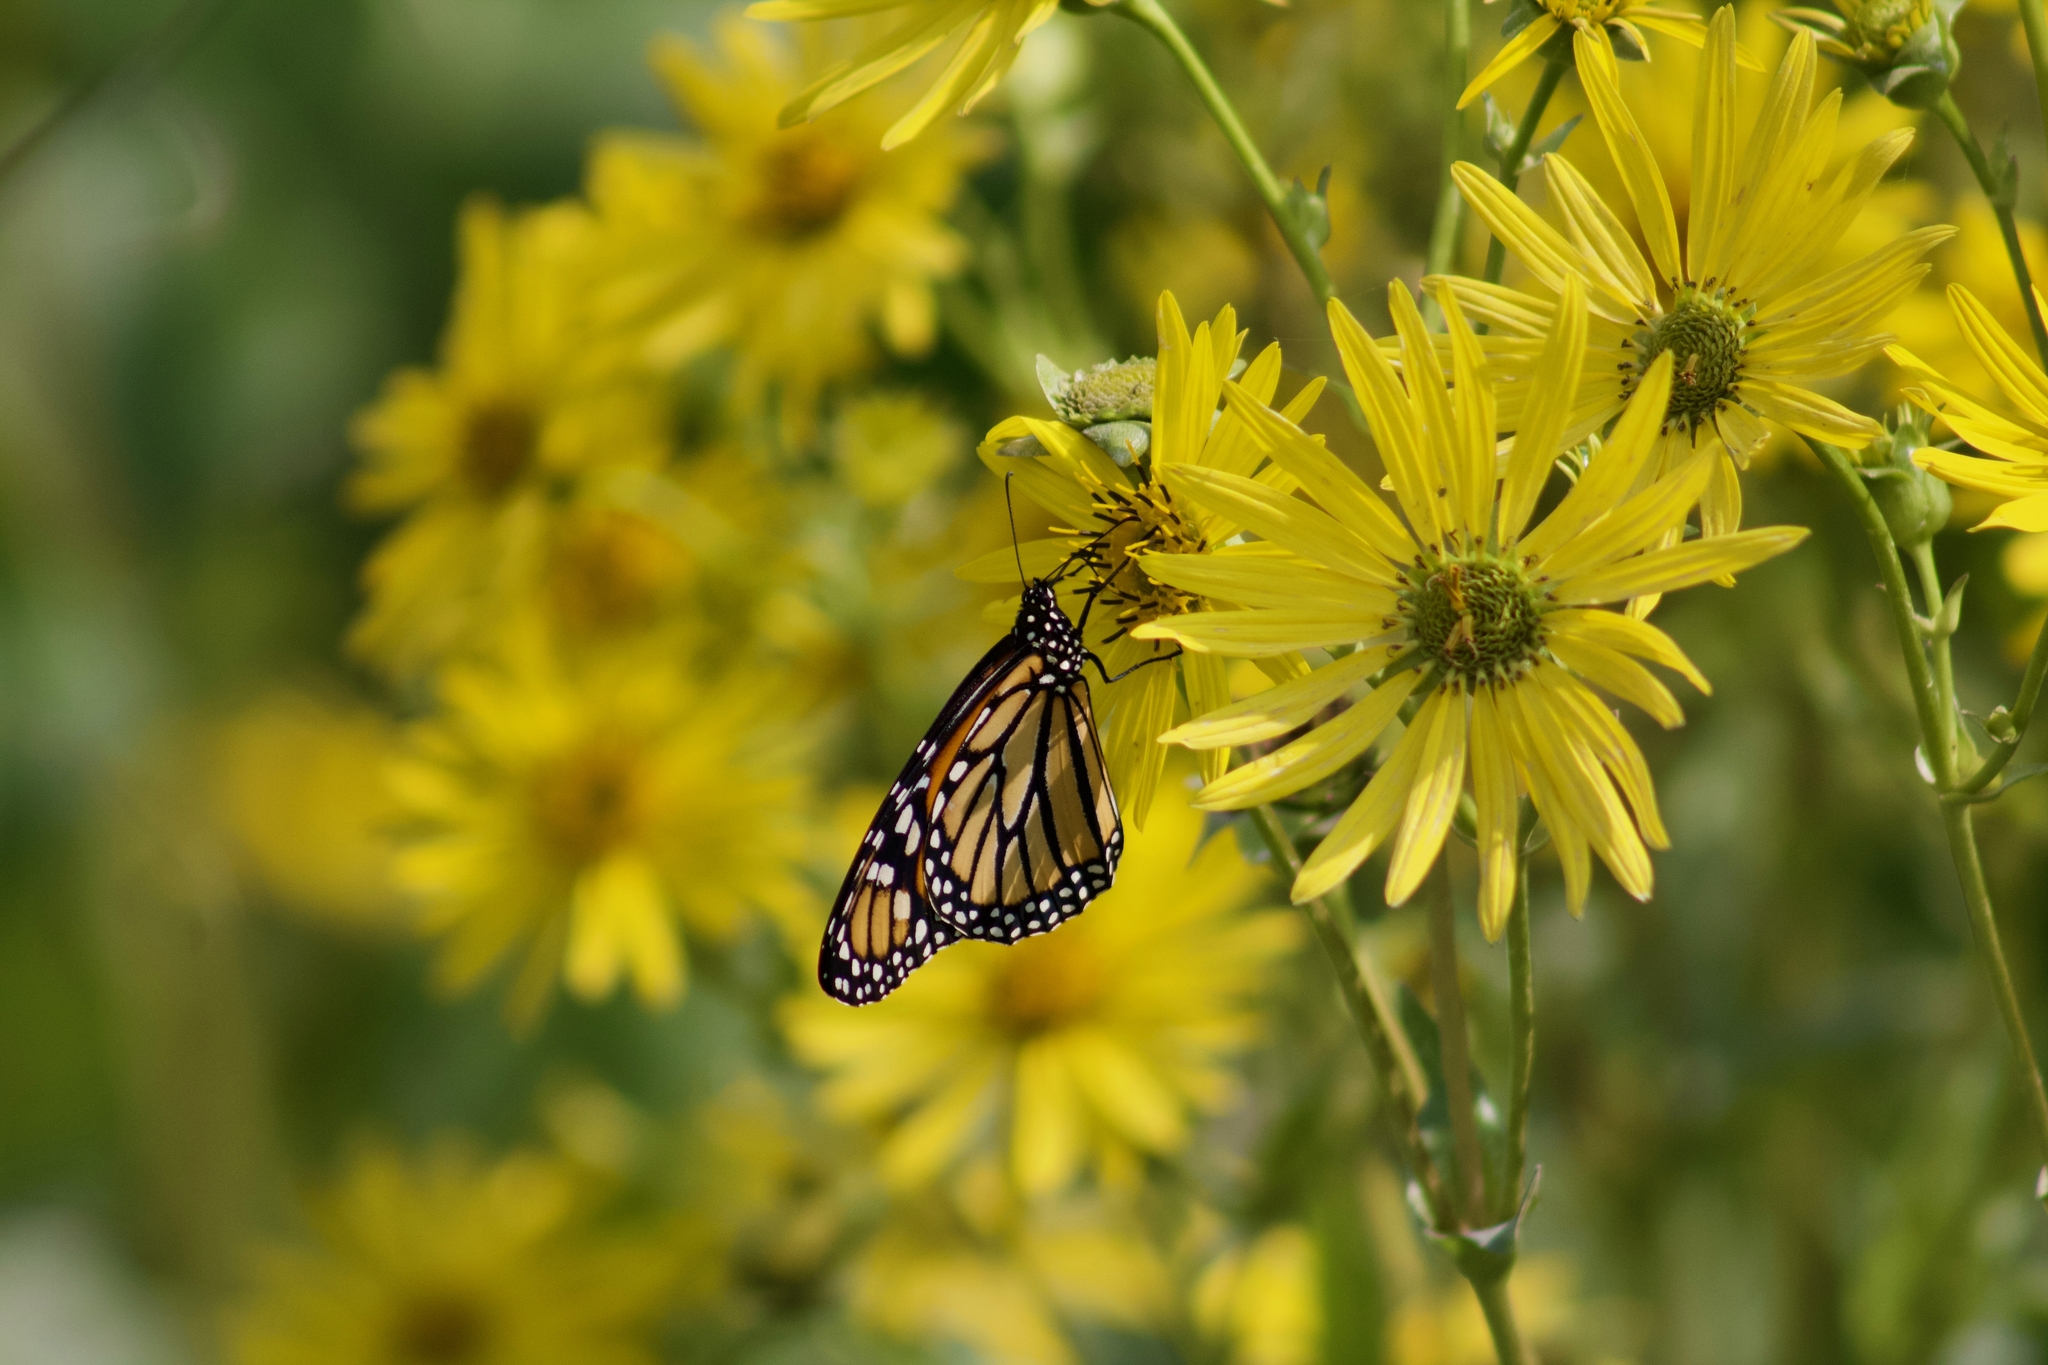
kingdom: Animalia
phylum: Arthropoda
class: Insecta
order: Lepidoptera
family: Nymphalidae
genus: Danaus
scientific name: Danaus plexippus
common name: Monarch
